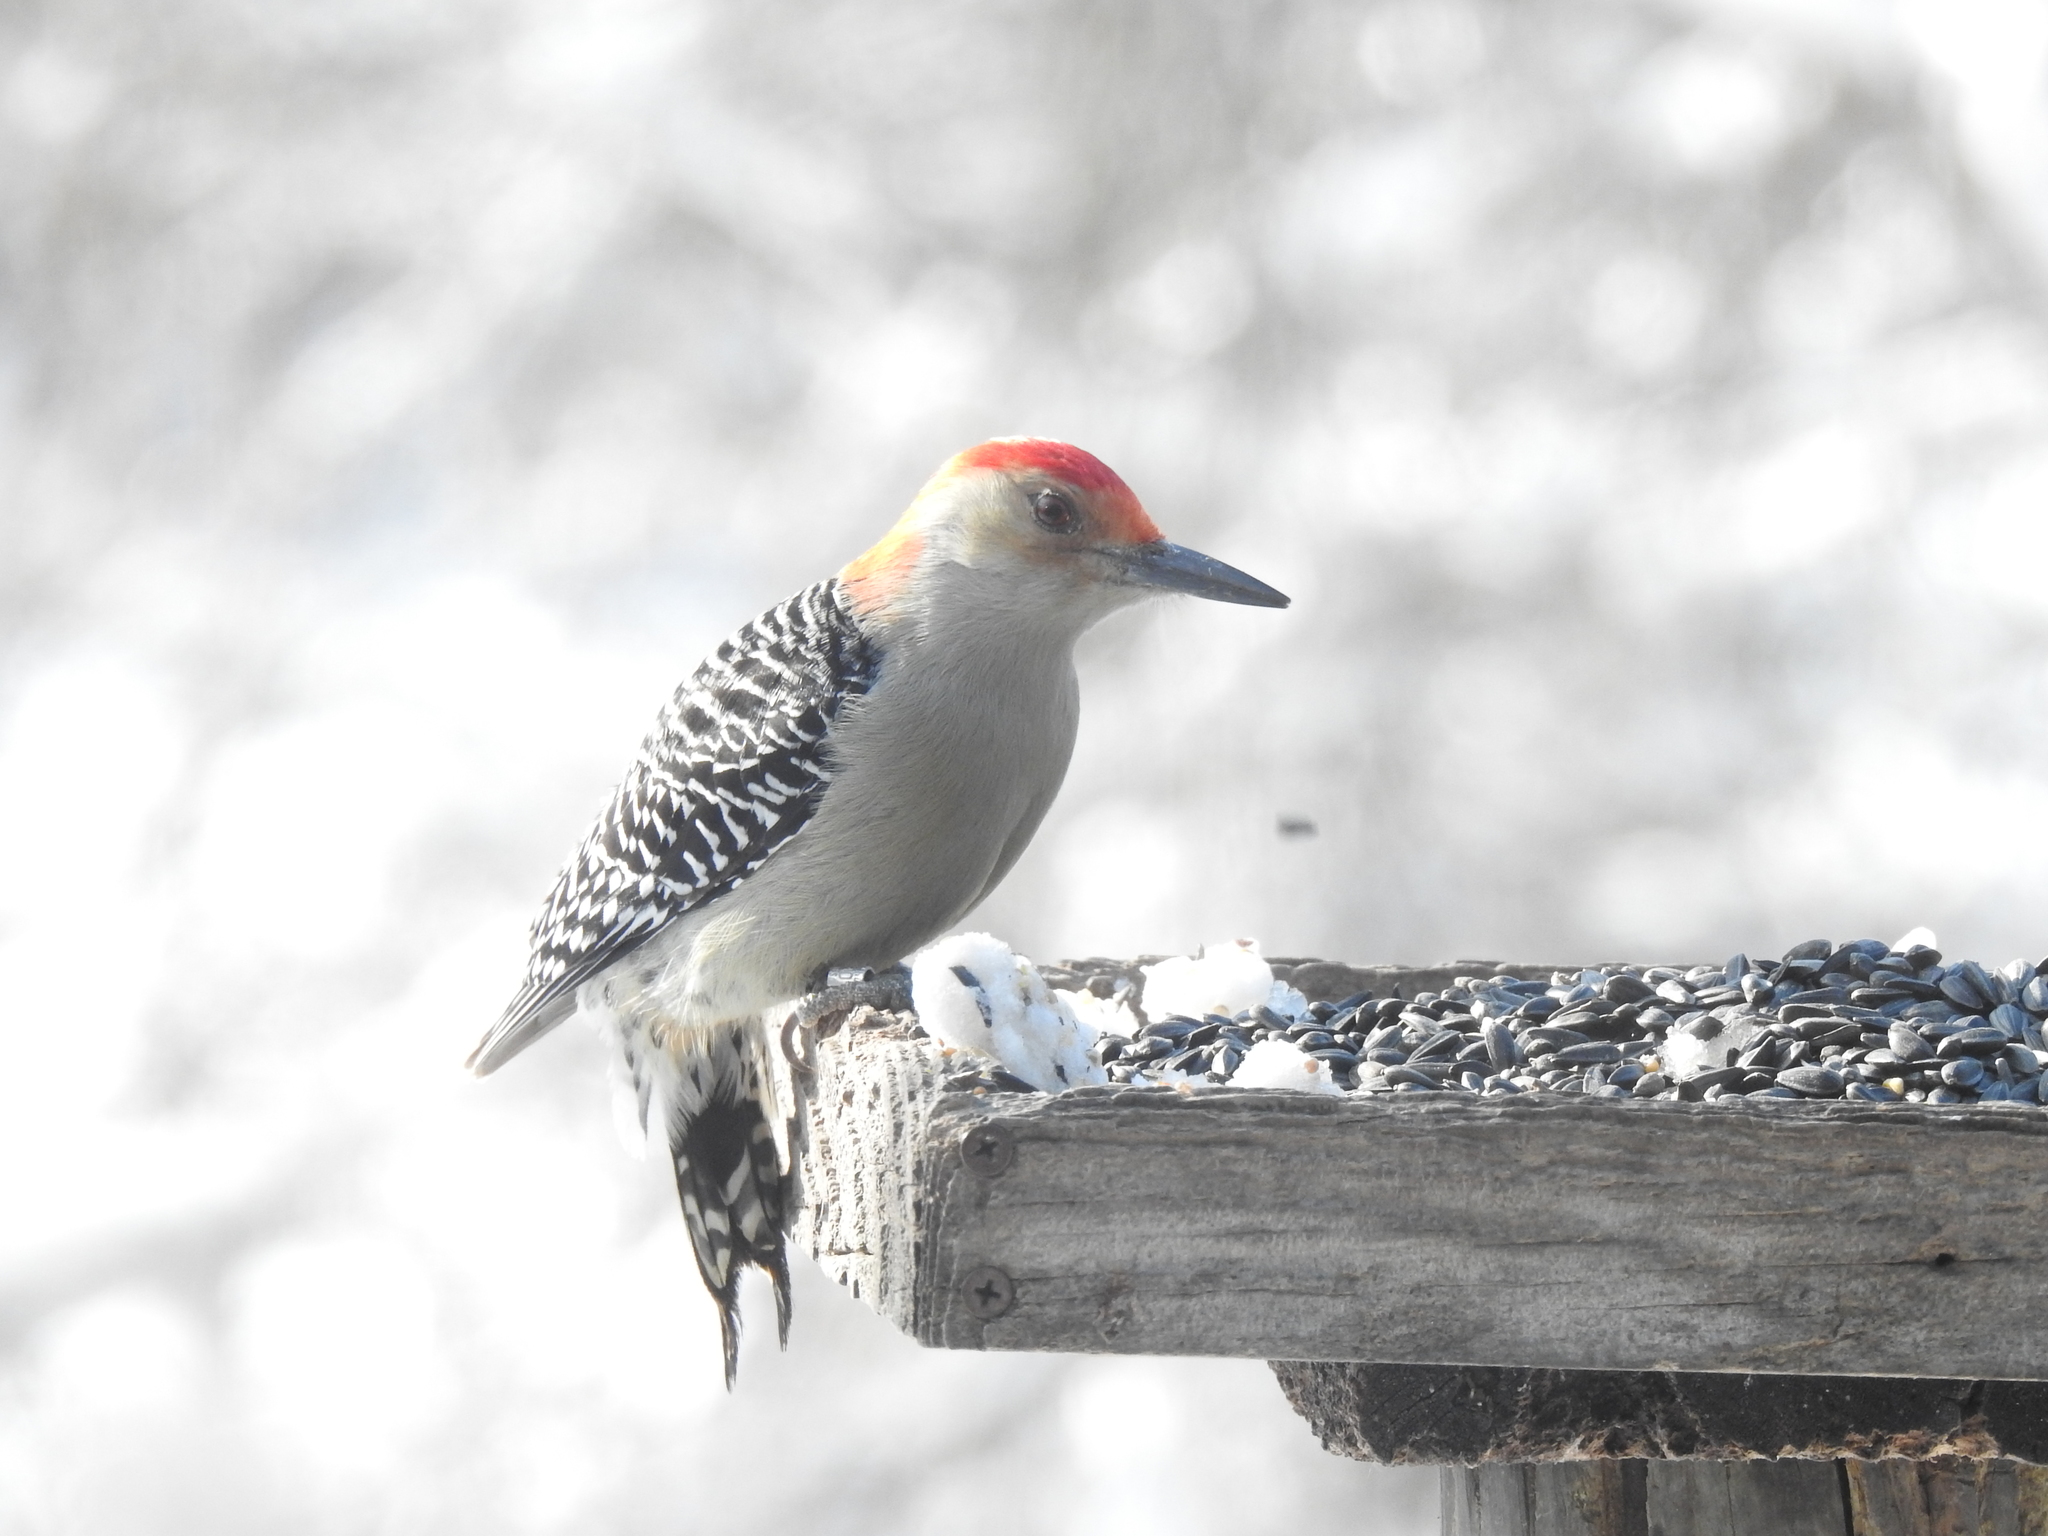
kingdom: Animalia
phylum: Chordata
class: Aves
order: Piciformes
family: Picidae
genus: Melanerpes
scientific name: Melanerpes carolinus
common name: Red-bellied woodpecker
